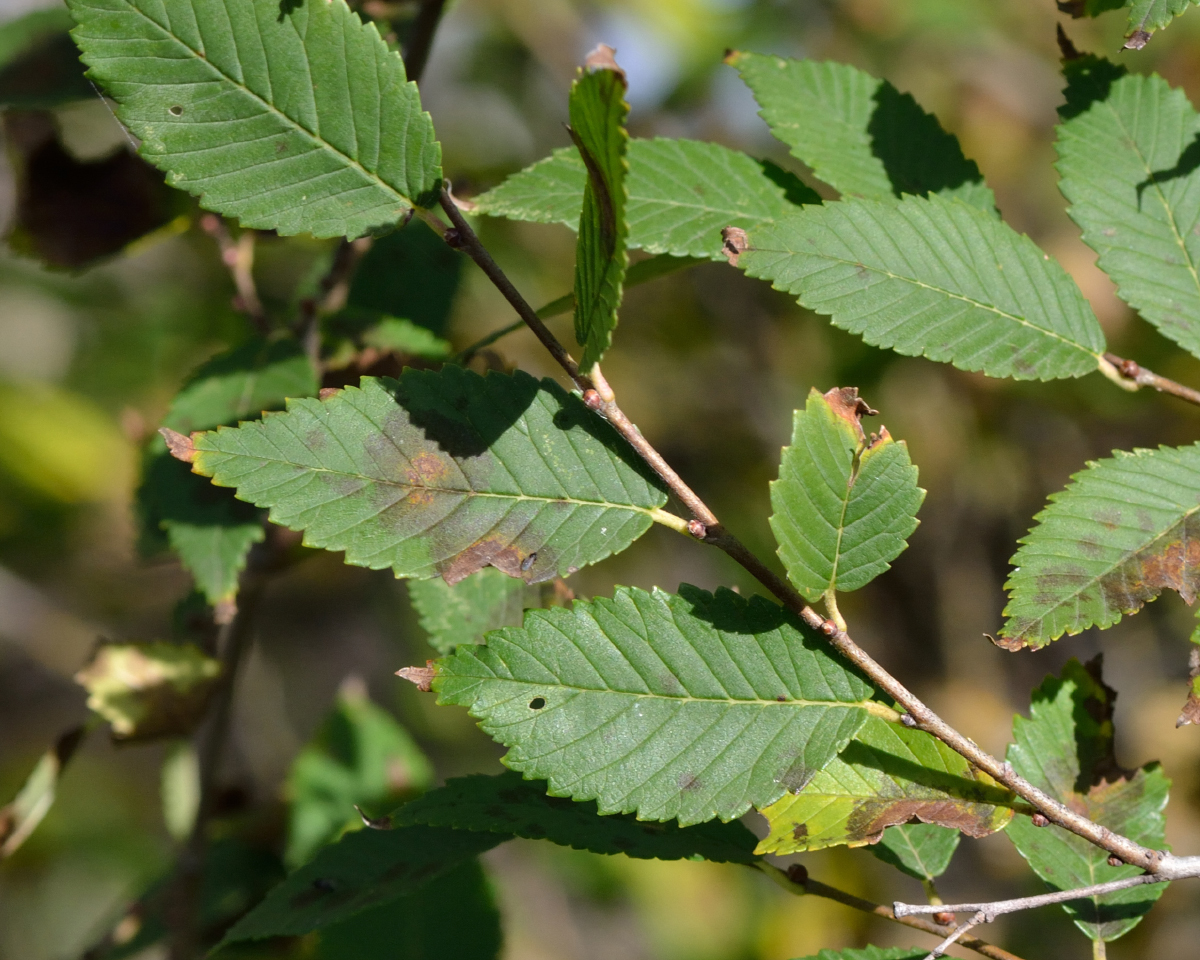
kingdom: Plantae
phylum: Tracheophyta
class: Magnoliopsida
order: Rosales
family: Ulmaceae
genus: Ulmus
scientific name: Ulmus pumila
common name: Siberian elm
